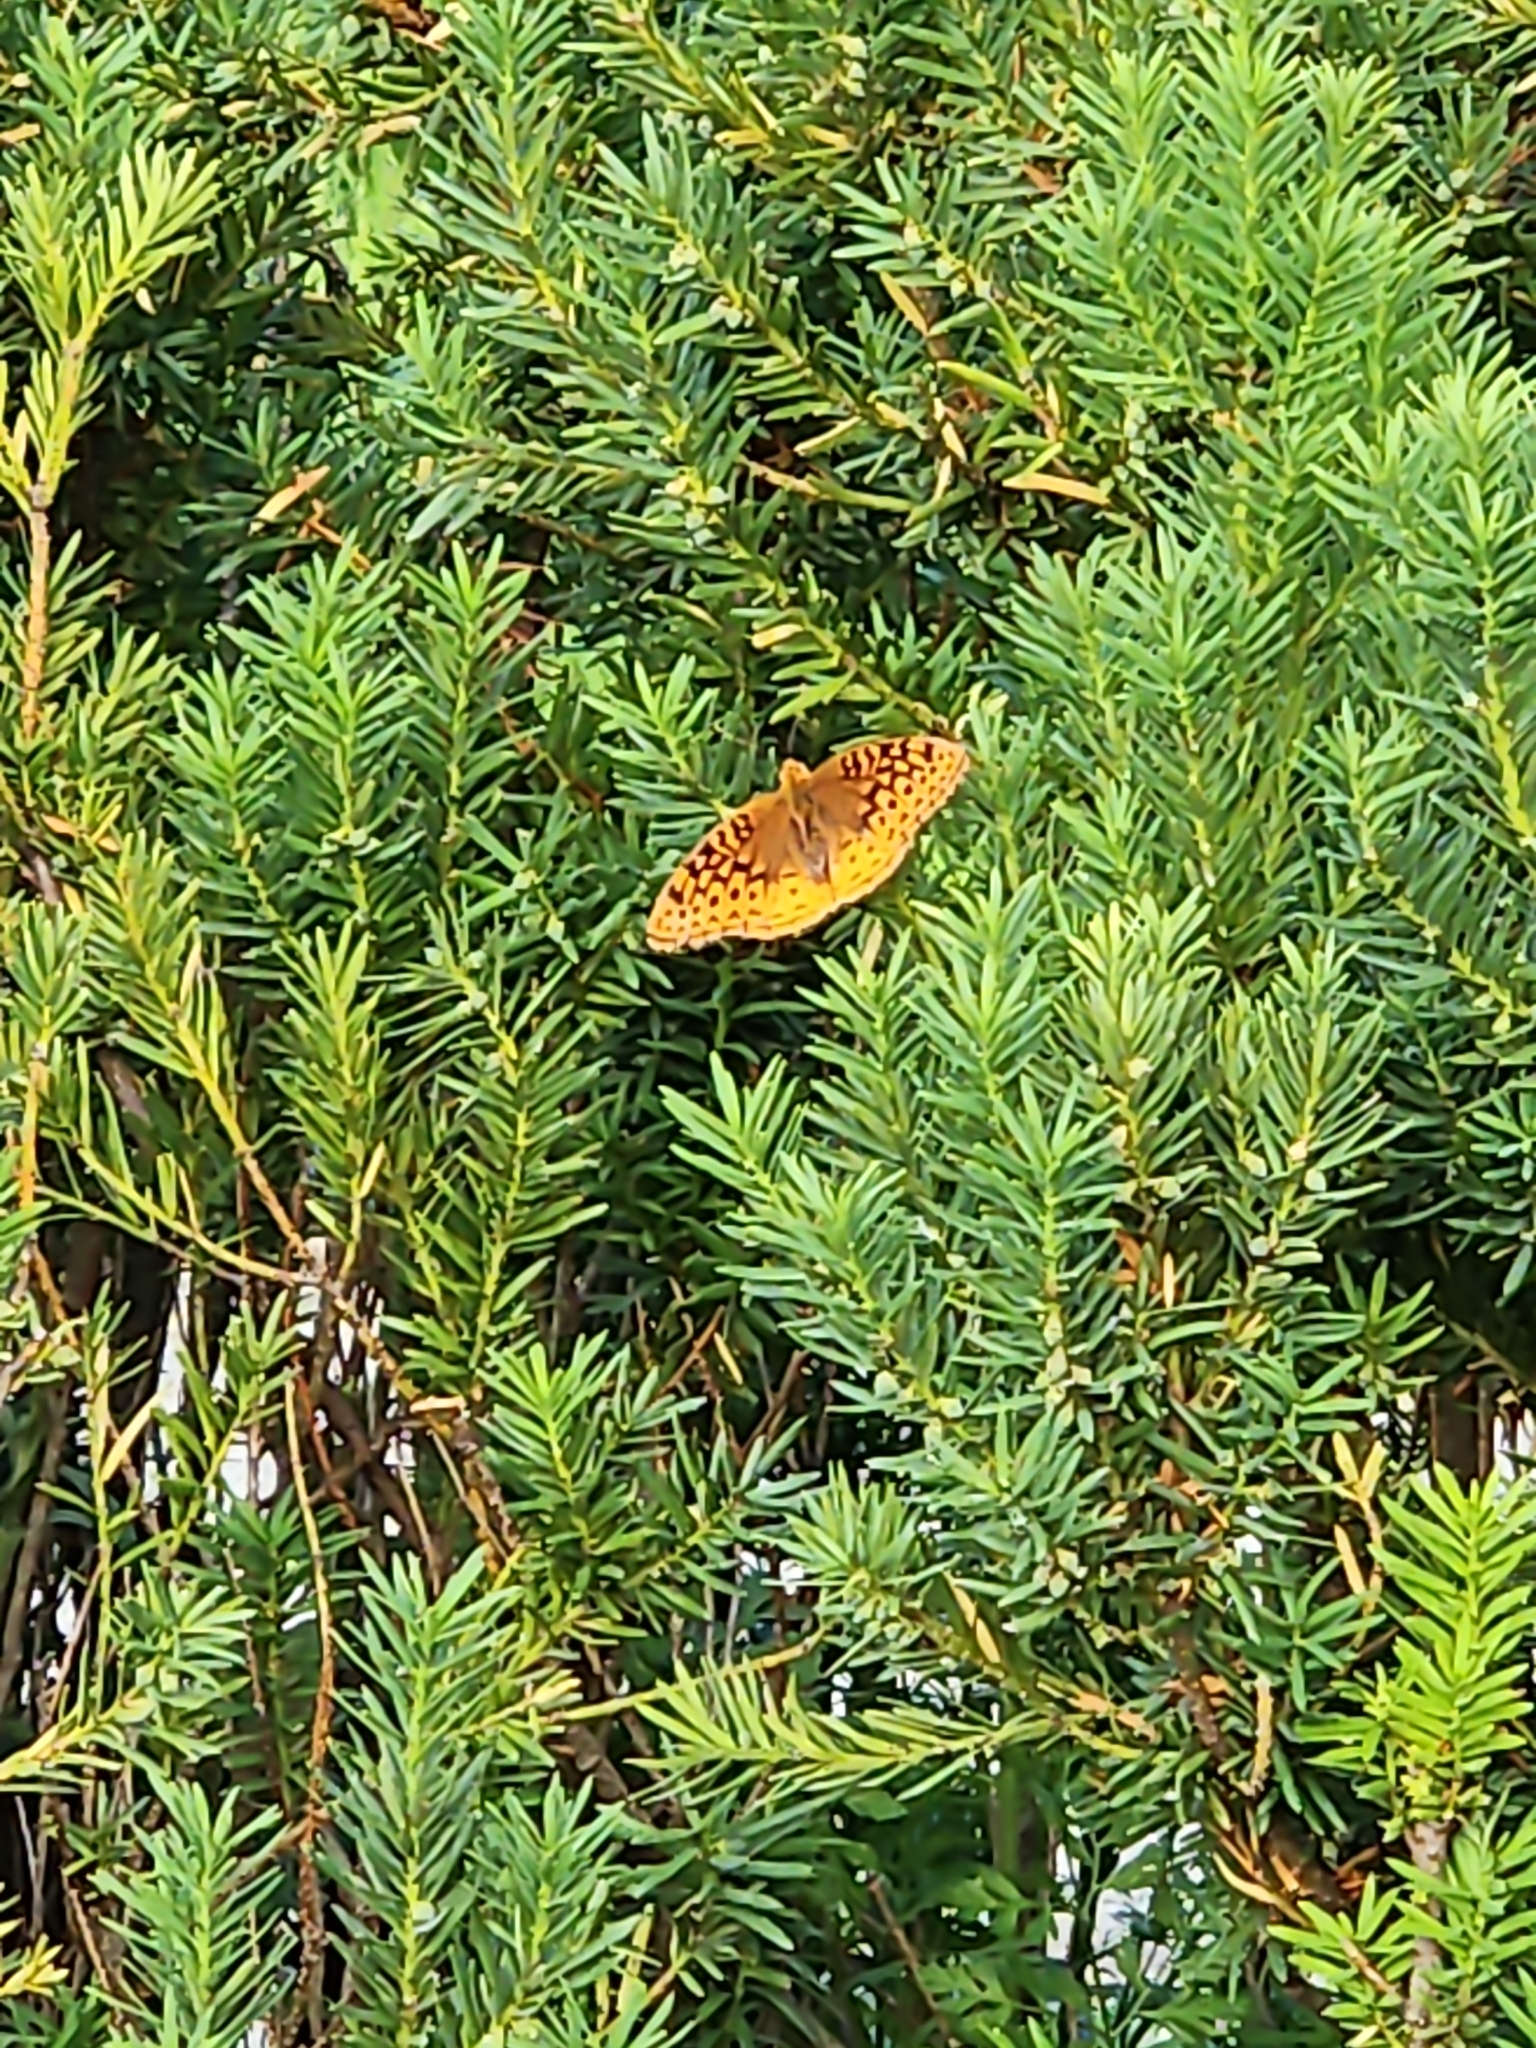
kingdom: Animalia
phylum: Arthropoda
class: Insecta
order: Lepidoptera
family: Nymphalidae
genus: Speyeria
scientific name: Speyeria cybele
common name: Great spangled fritillary
